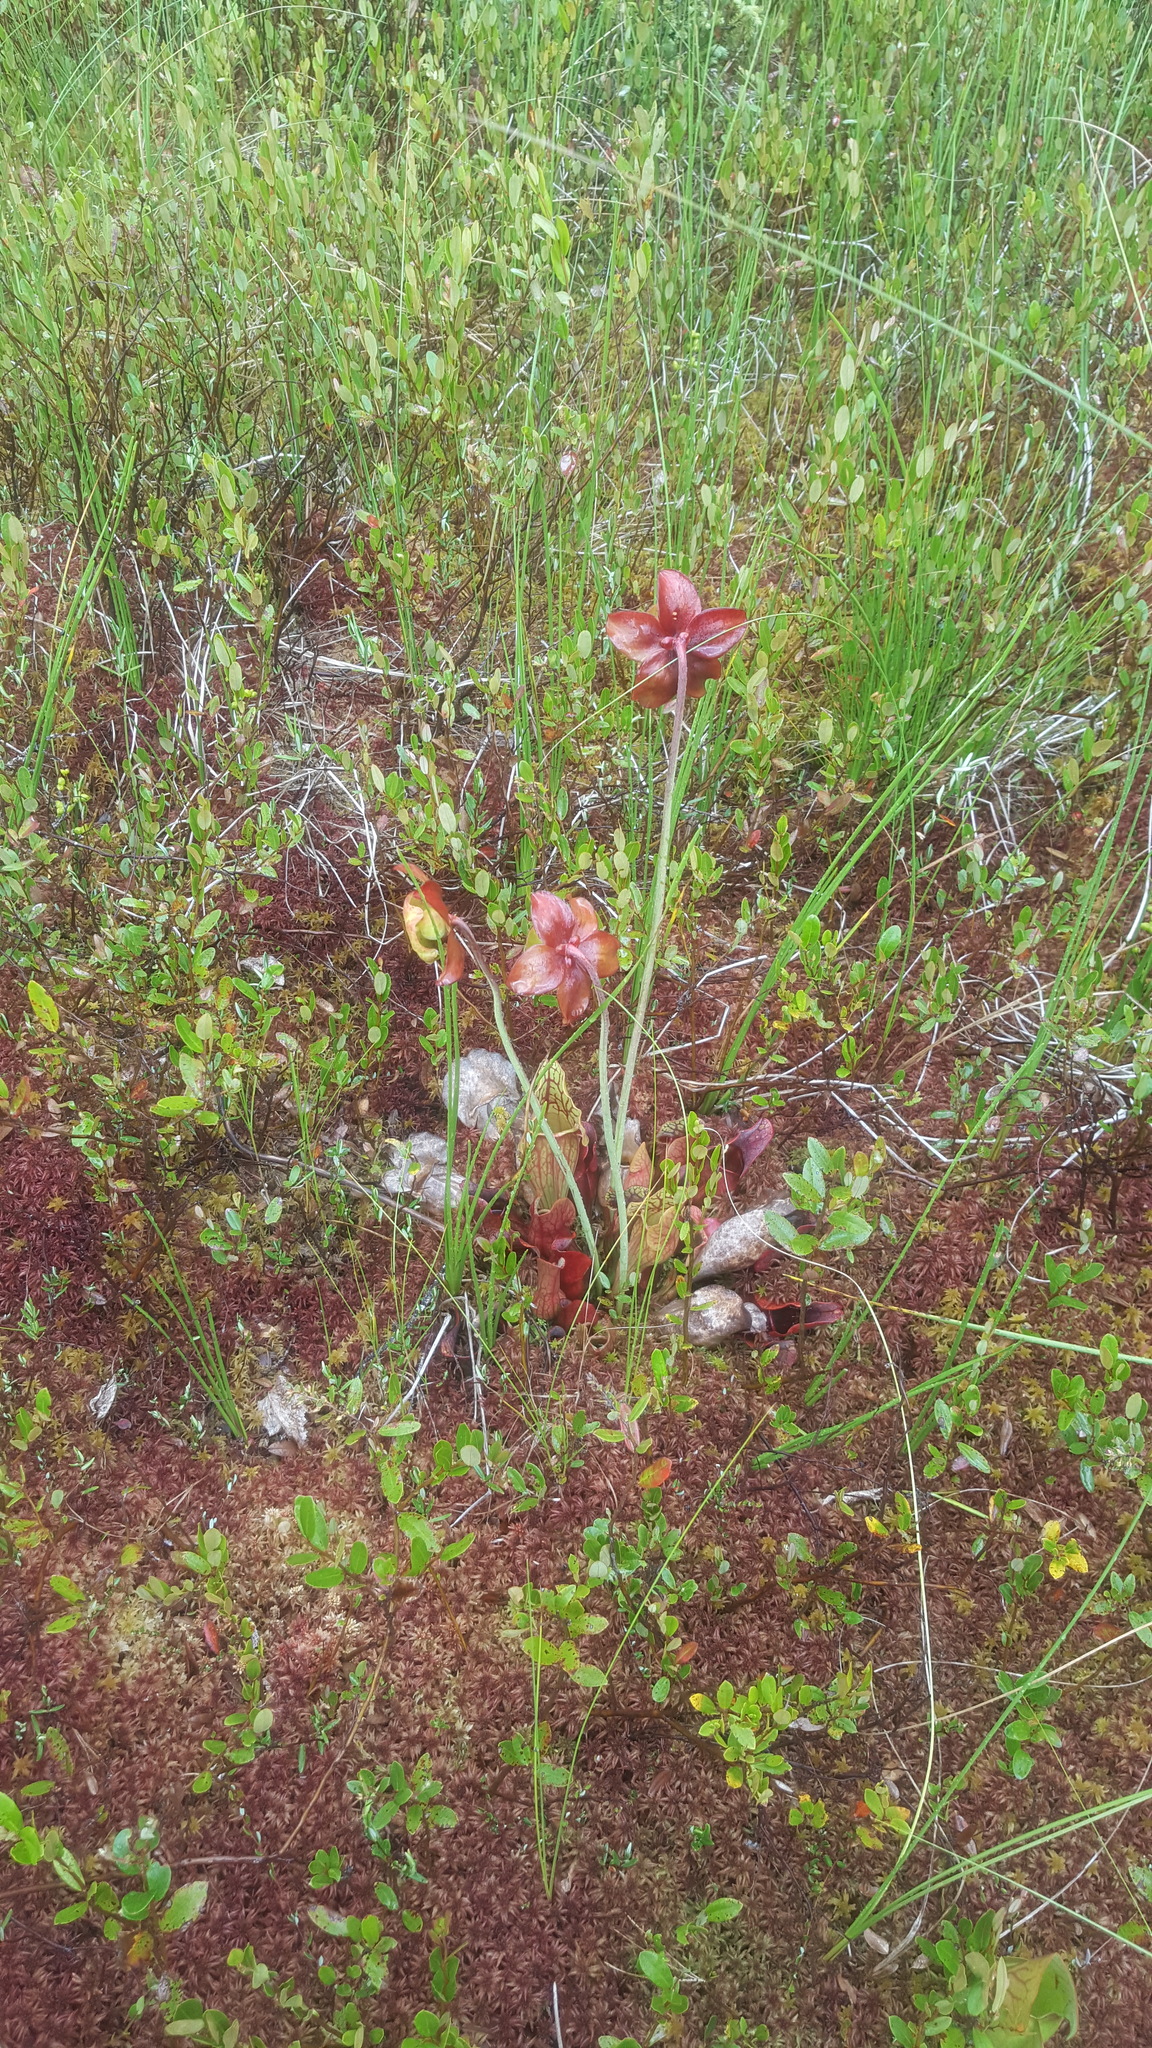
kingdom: Plantae
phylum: Tracheophyta
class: Magnoliopsida
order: Ericales
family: Sarraceniaceae
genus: Sarracenia
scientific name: Sarracenia purpurea
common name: Pitcherplant
